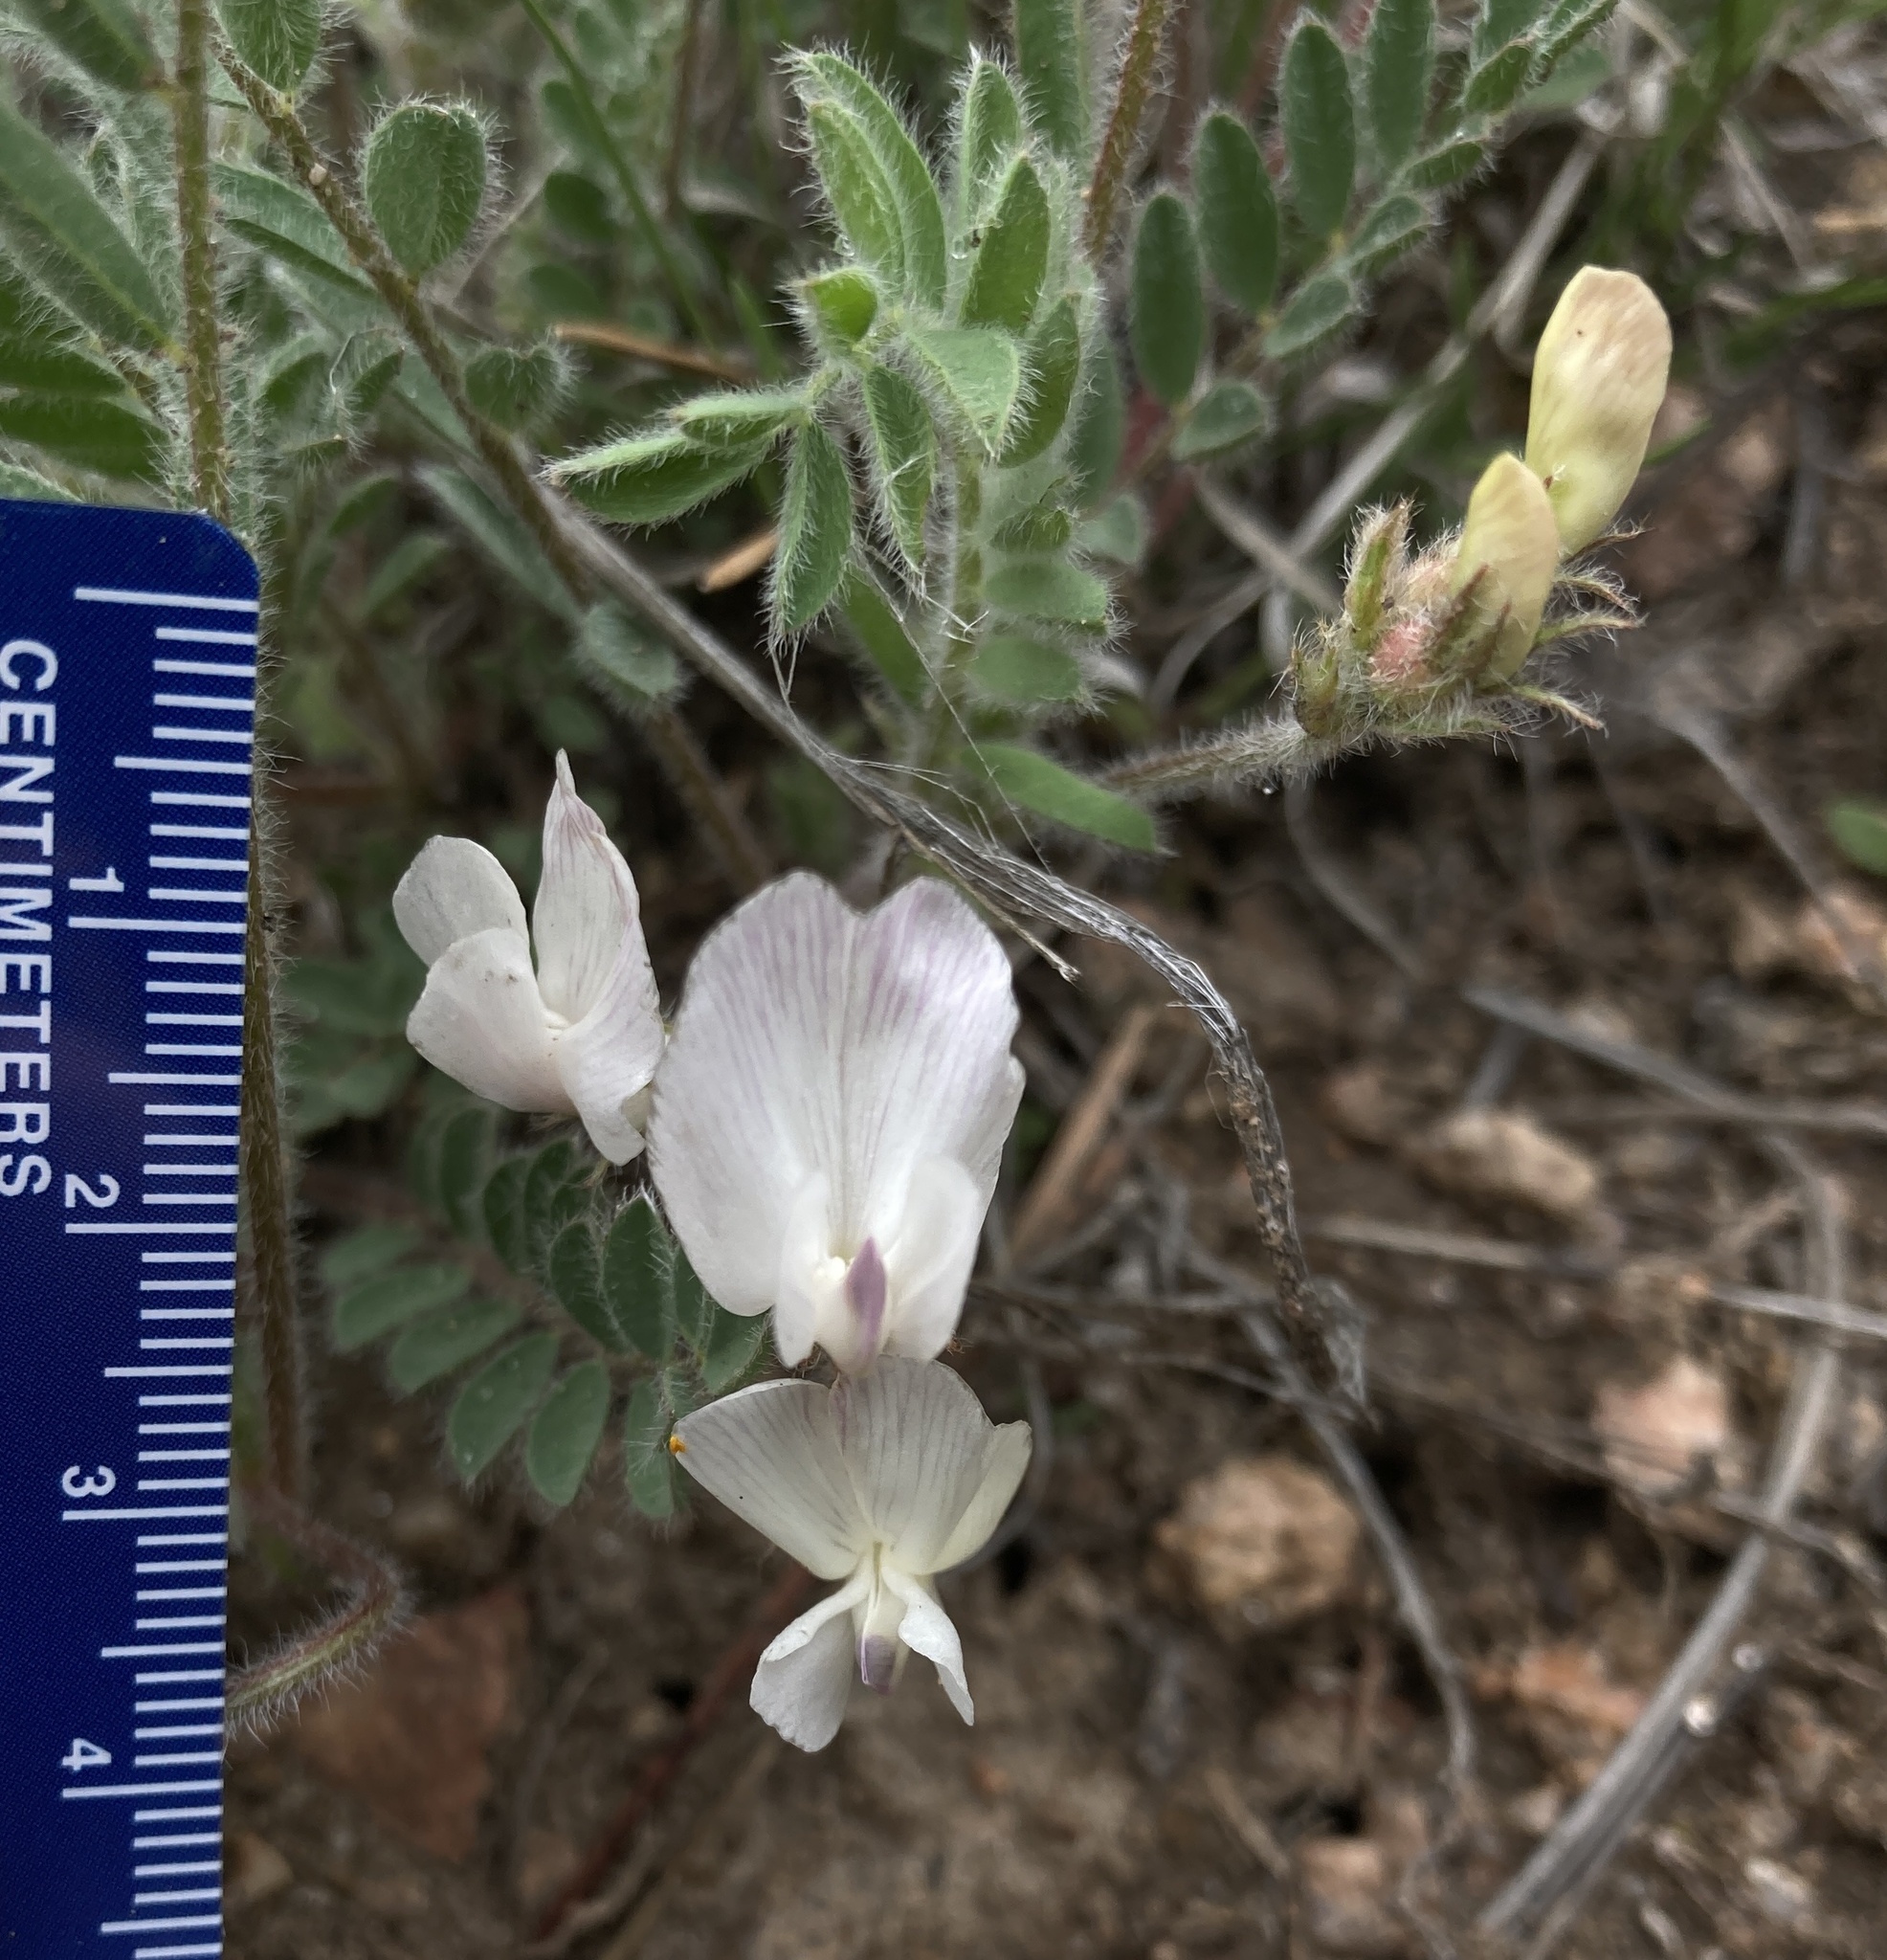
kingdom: Plantae
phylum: Tracheophyta
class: Magnoliopsida
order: Fabales
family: Fabaceae
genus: Astragalus
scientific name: Astragalus parryi
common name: Parry milk-vetch
